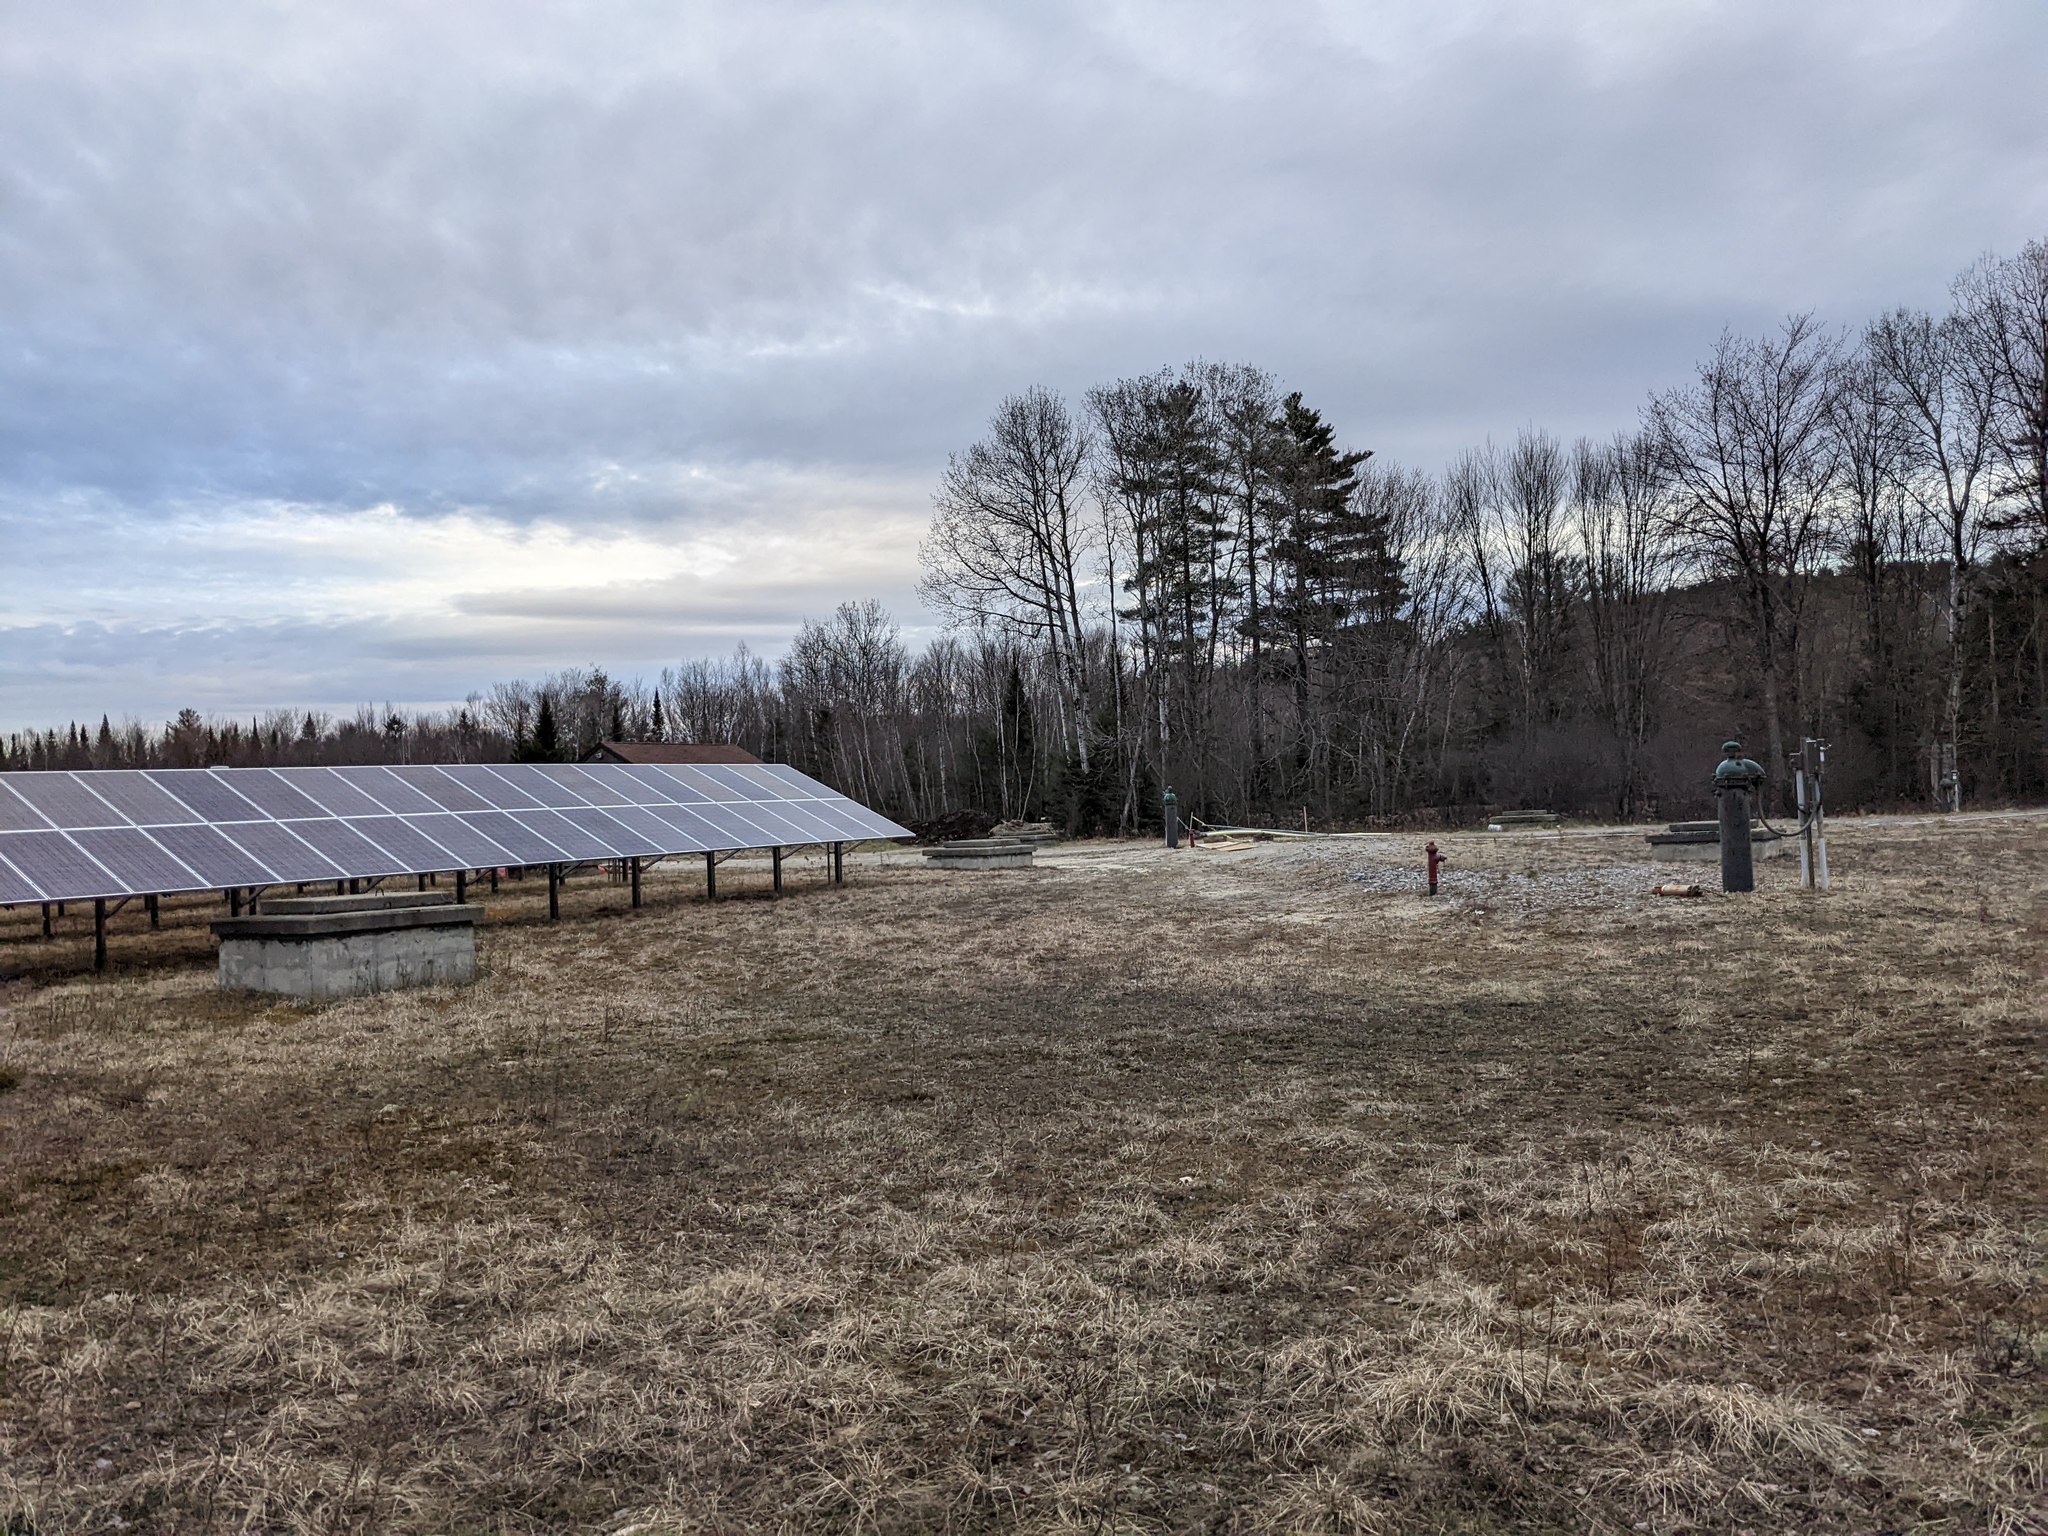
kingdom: Plantae
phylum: Tracheophyta
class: Pinopsida
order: Pinales
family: Pinaceae
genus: Pinus
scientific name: Pinus strobus
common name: Weymouth pine
